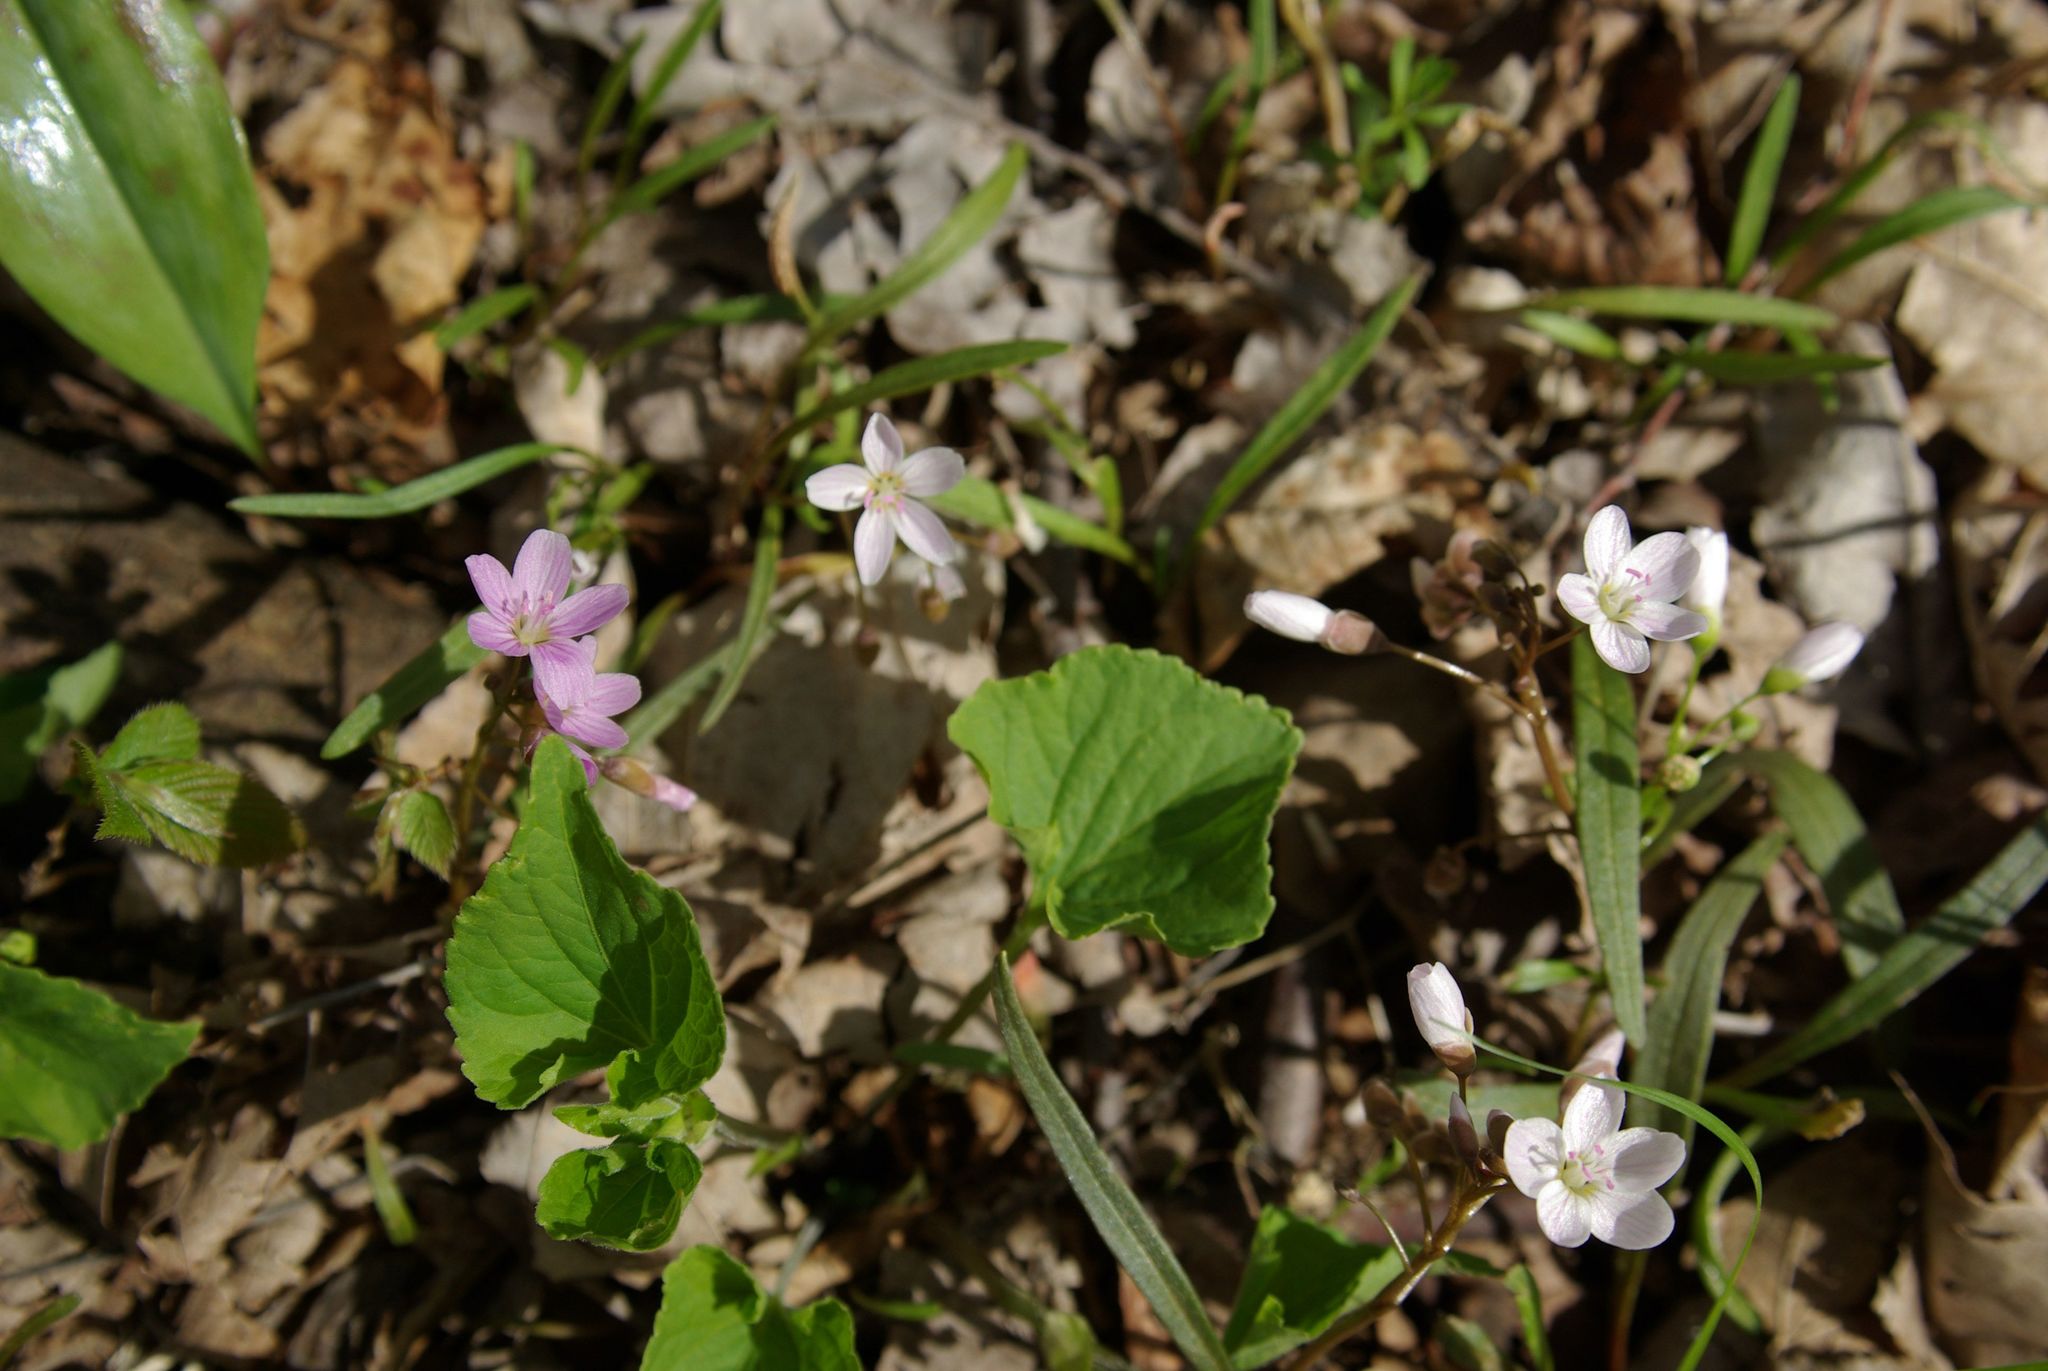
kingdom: Plantae
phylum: Tracheophyta
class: Magnoliopsida
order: Caryophyllales
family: Montiaceae
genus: Claytonia
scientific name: Claytonia virginica
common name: Virginia springbeauty
